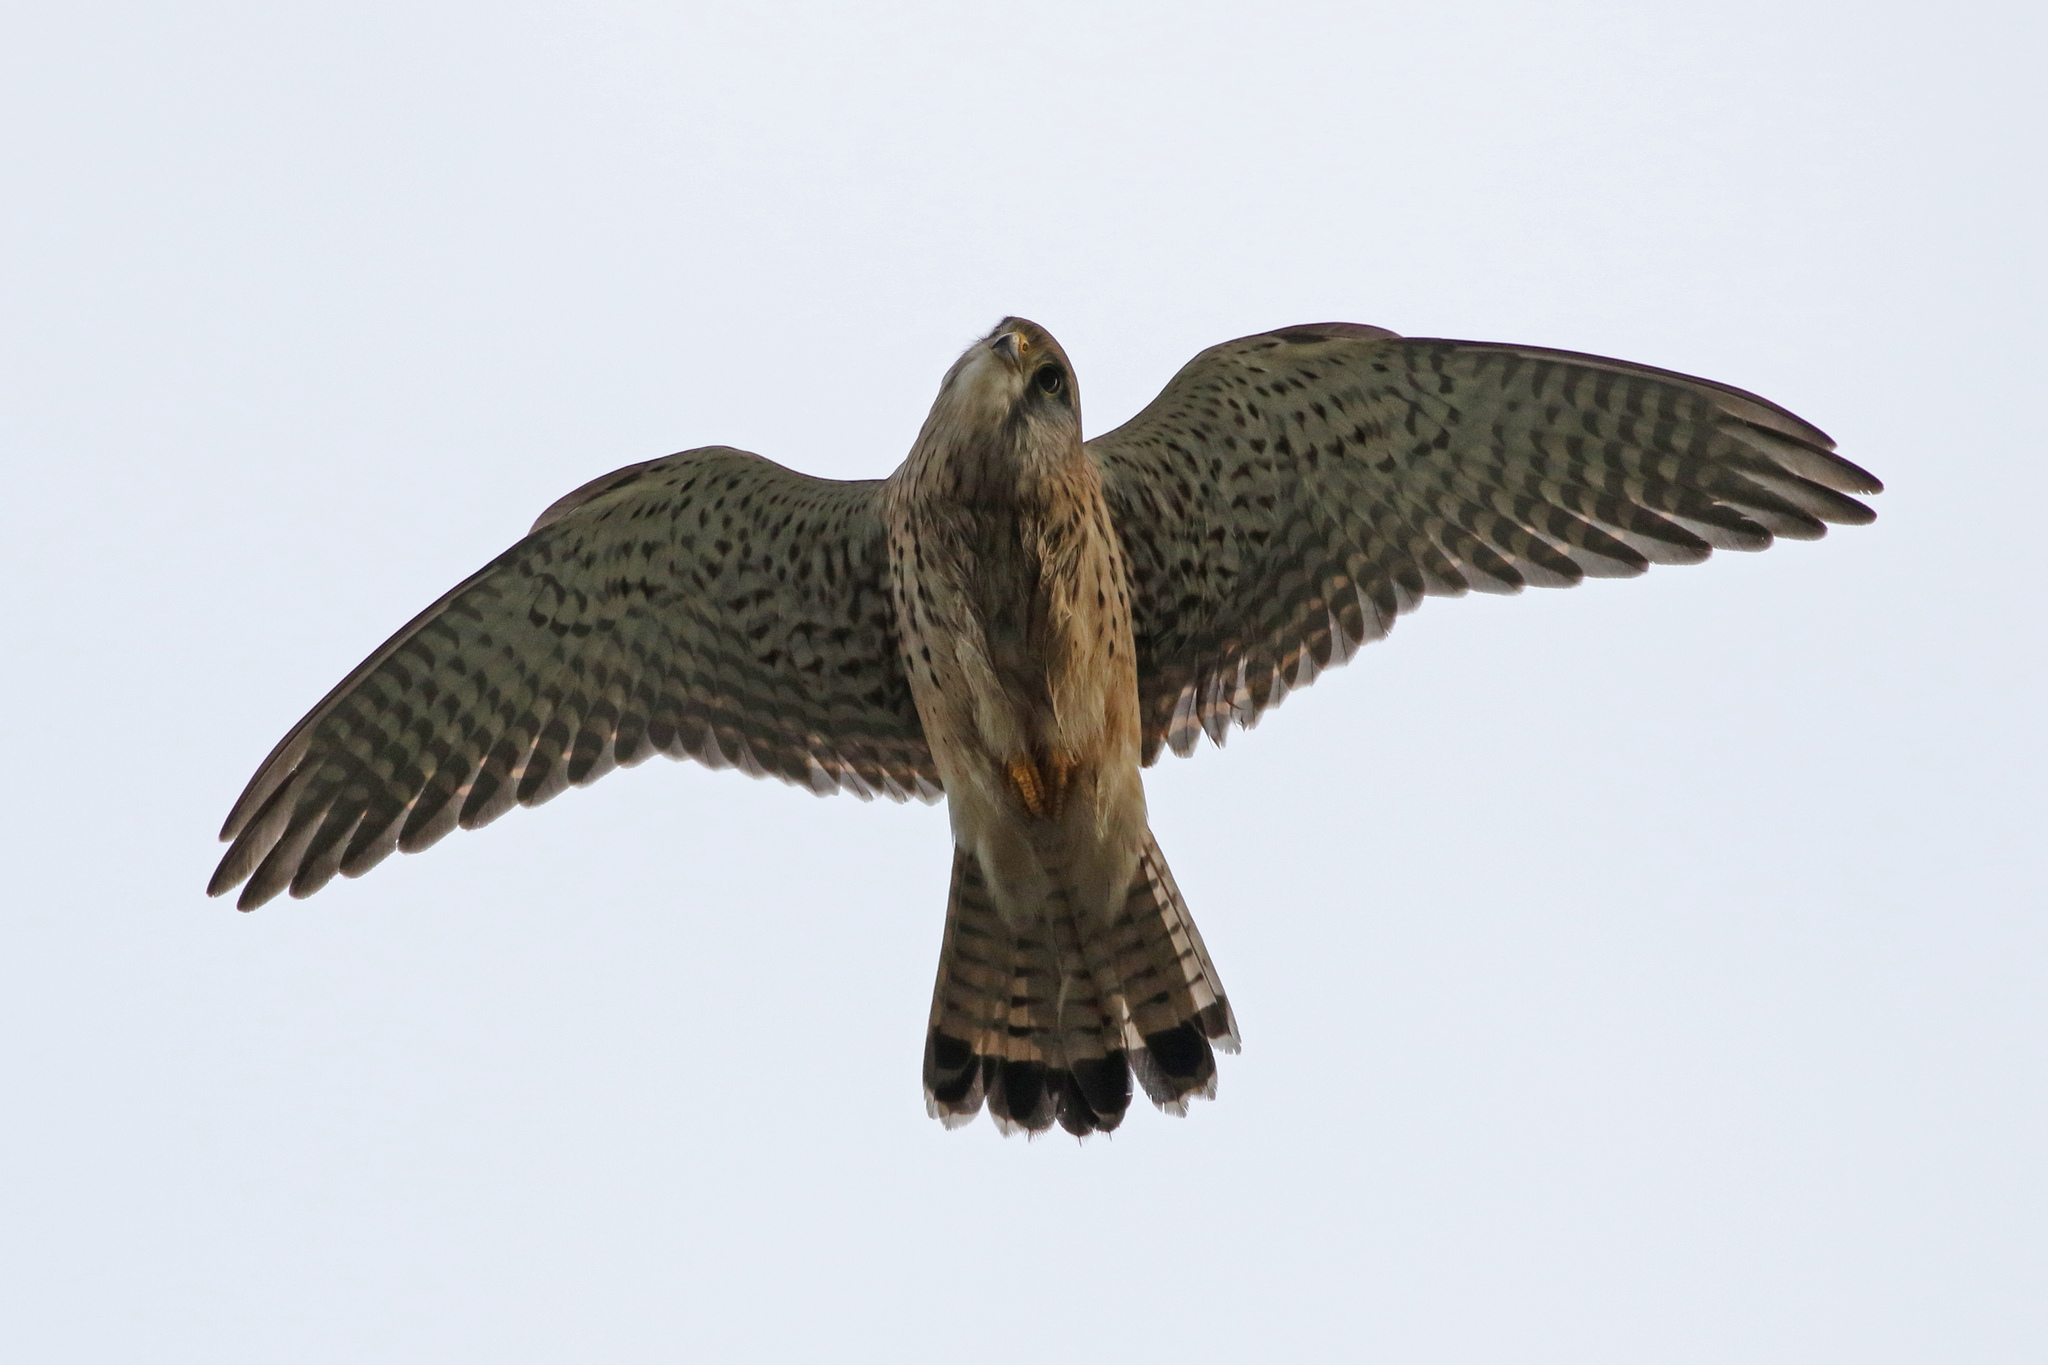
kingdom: Animalia
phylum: Chordata
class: Aves
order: Falconiformes
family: Falconidae
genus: Falco
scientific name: Falco tinnunculus
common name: Common kestrel
